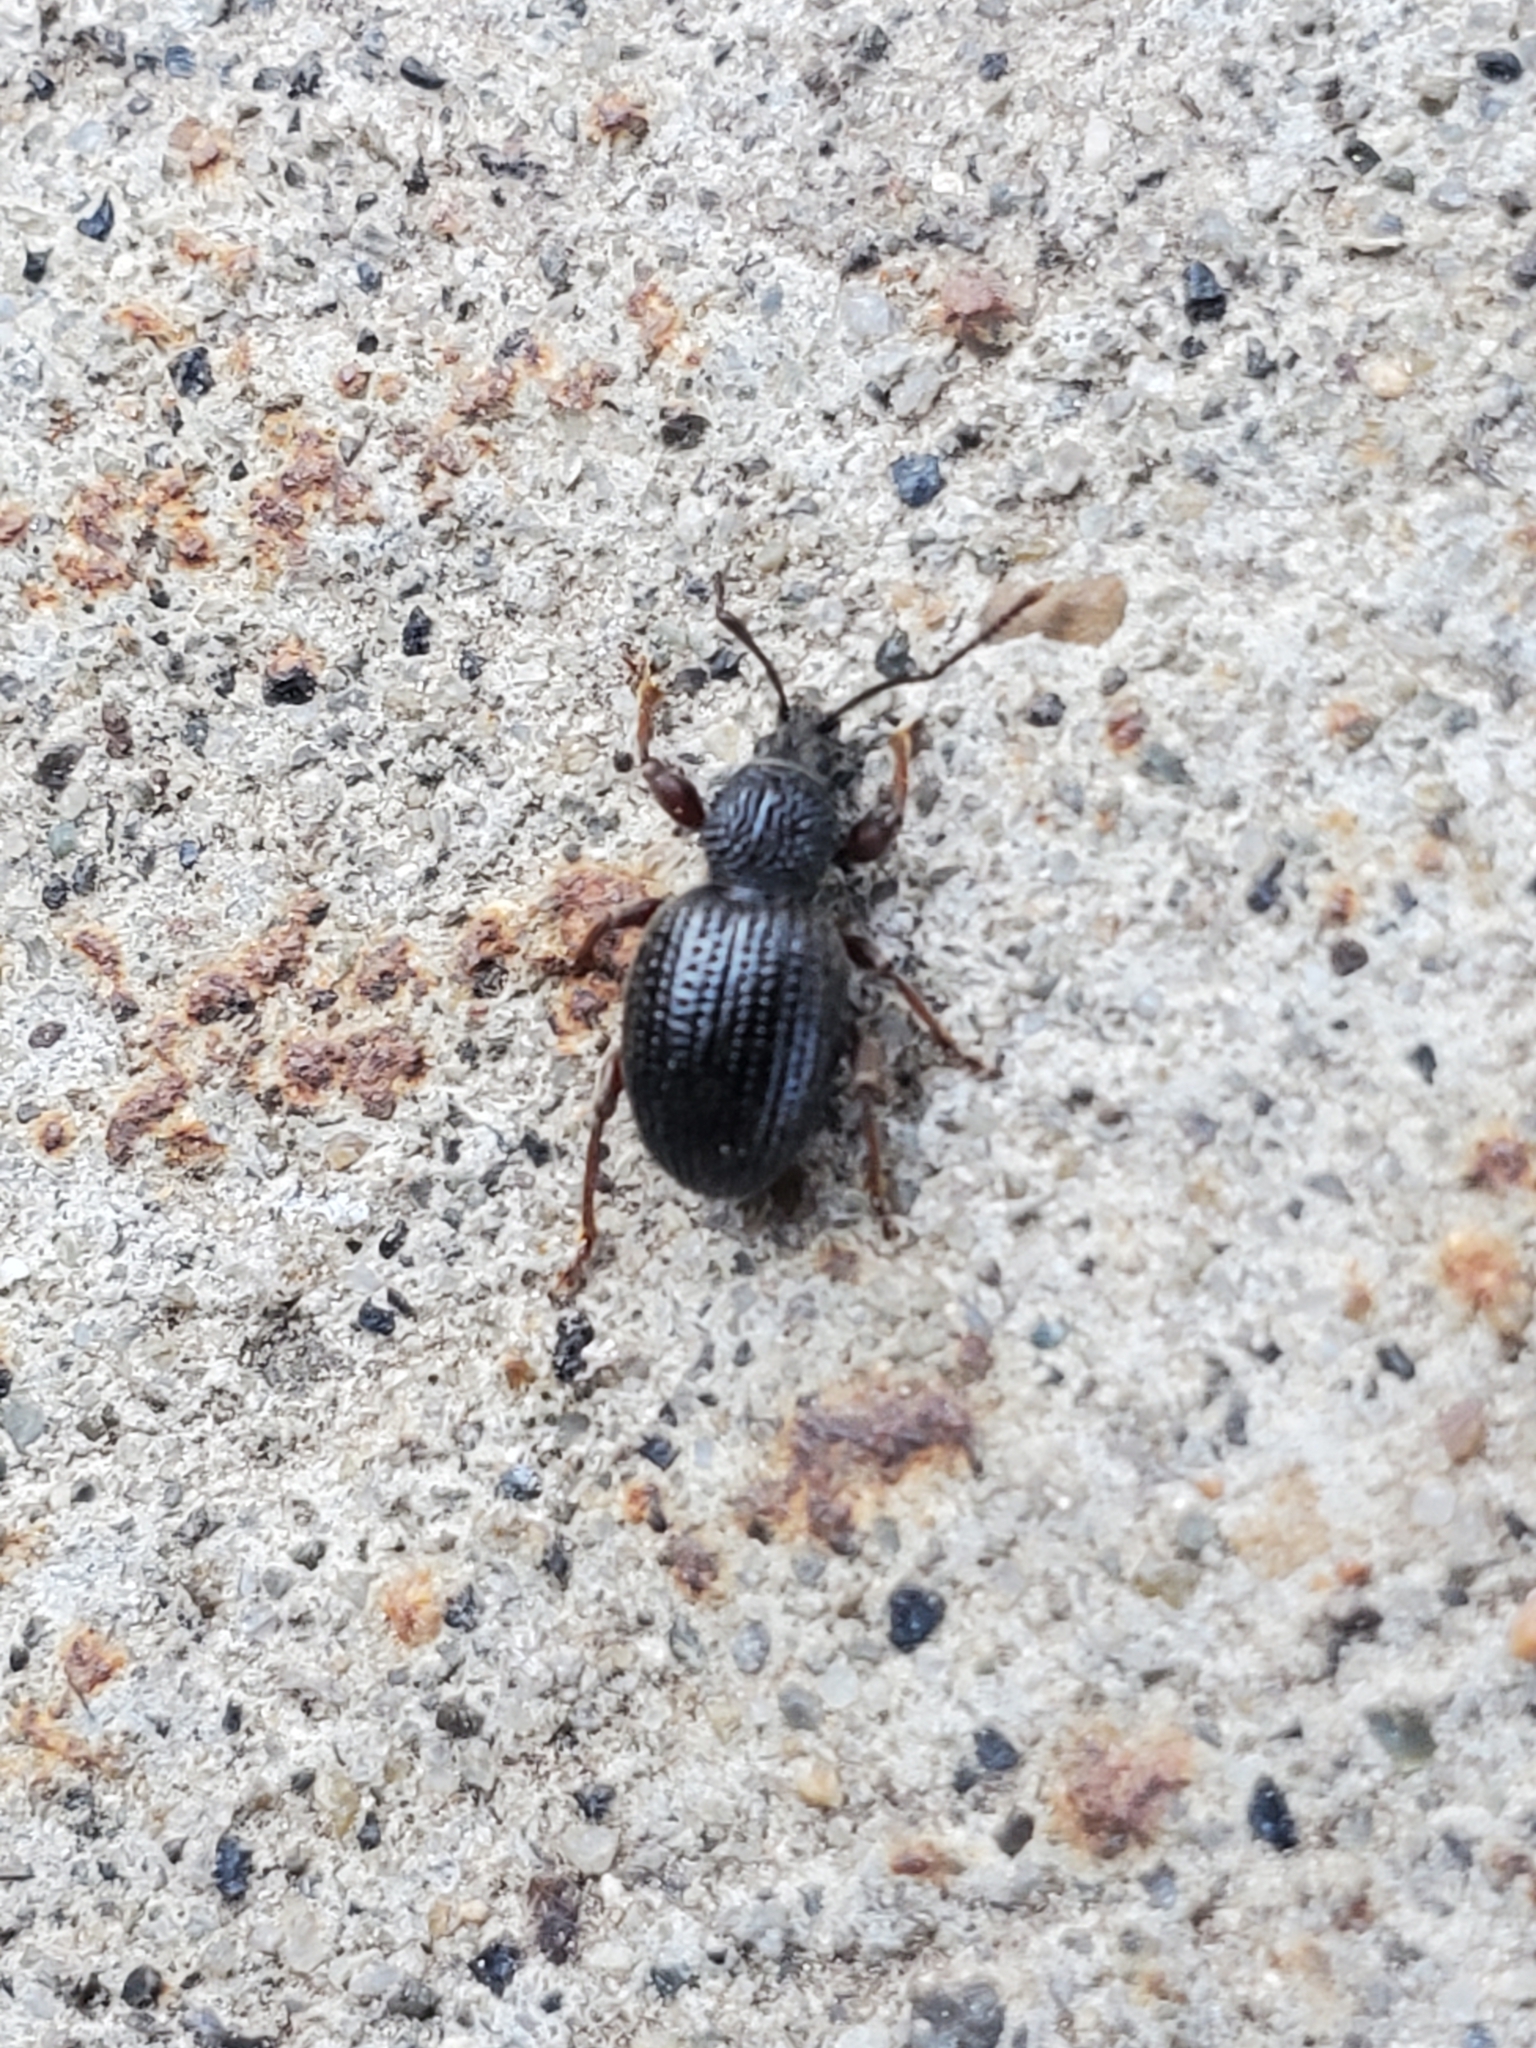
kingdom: Animalia
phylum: Arthropoda
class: Insecta
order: Coleoptera
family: Curculionidae
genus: Otiorhynchus
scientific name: Otiorhynchus ovatus
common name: Strawberry root weevil
